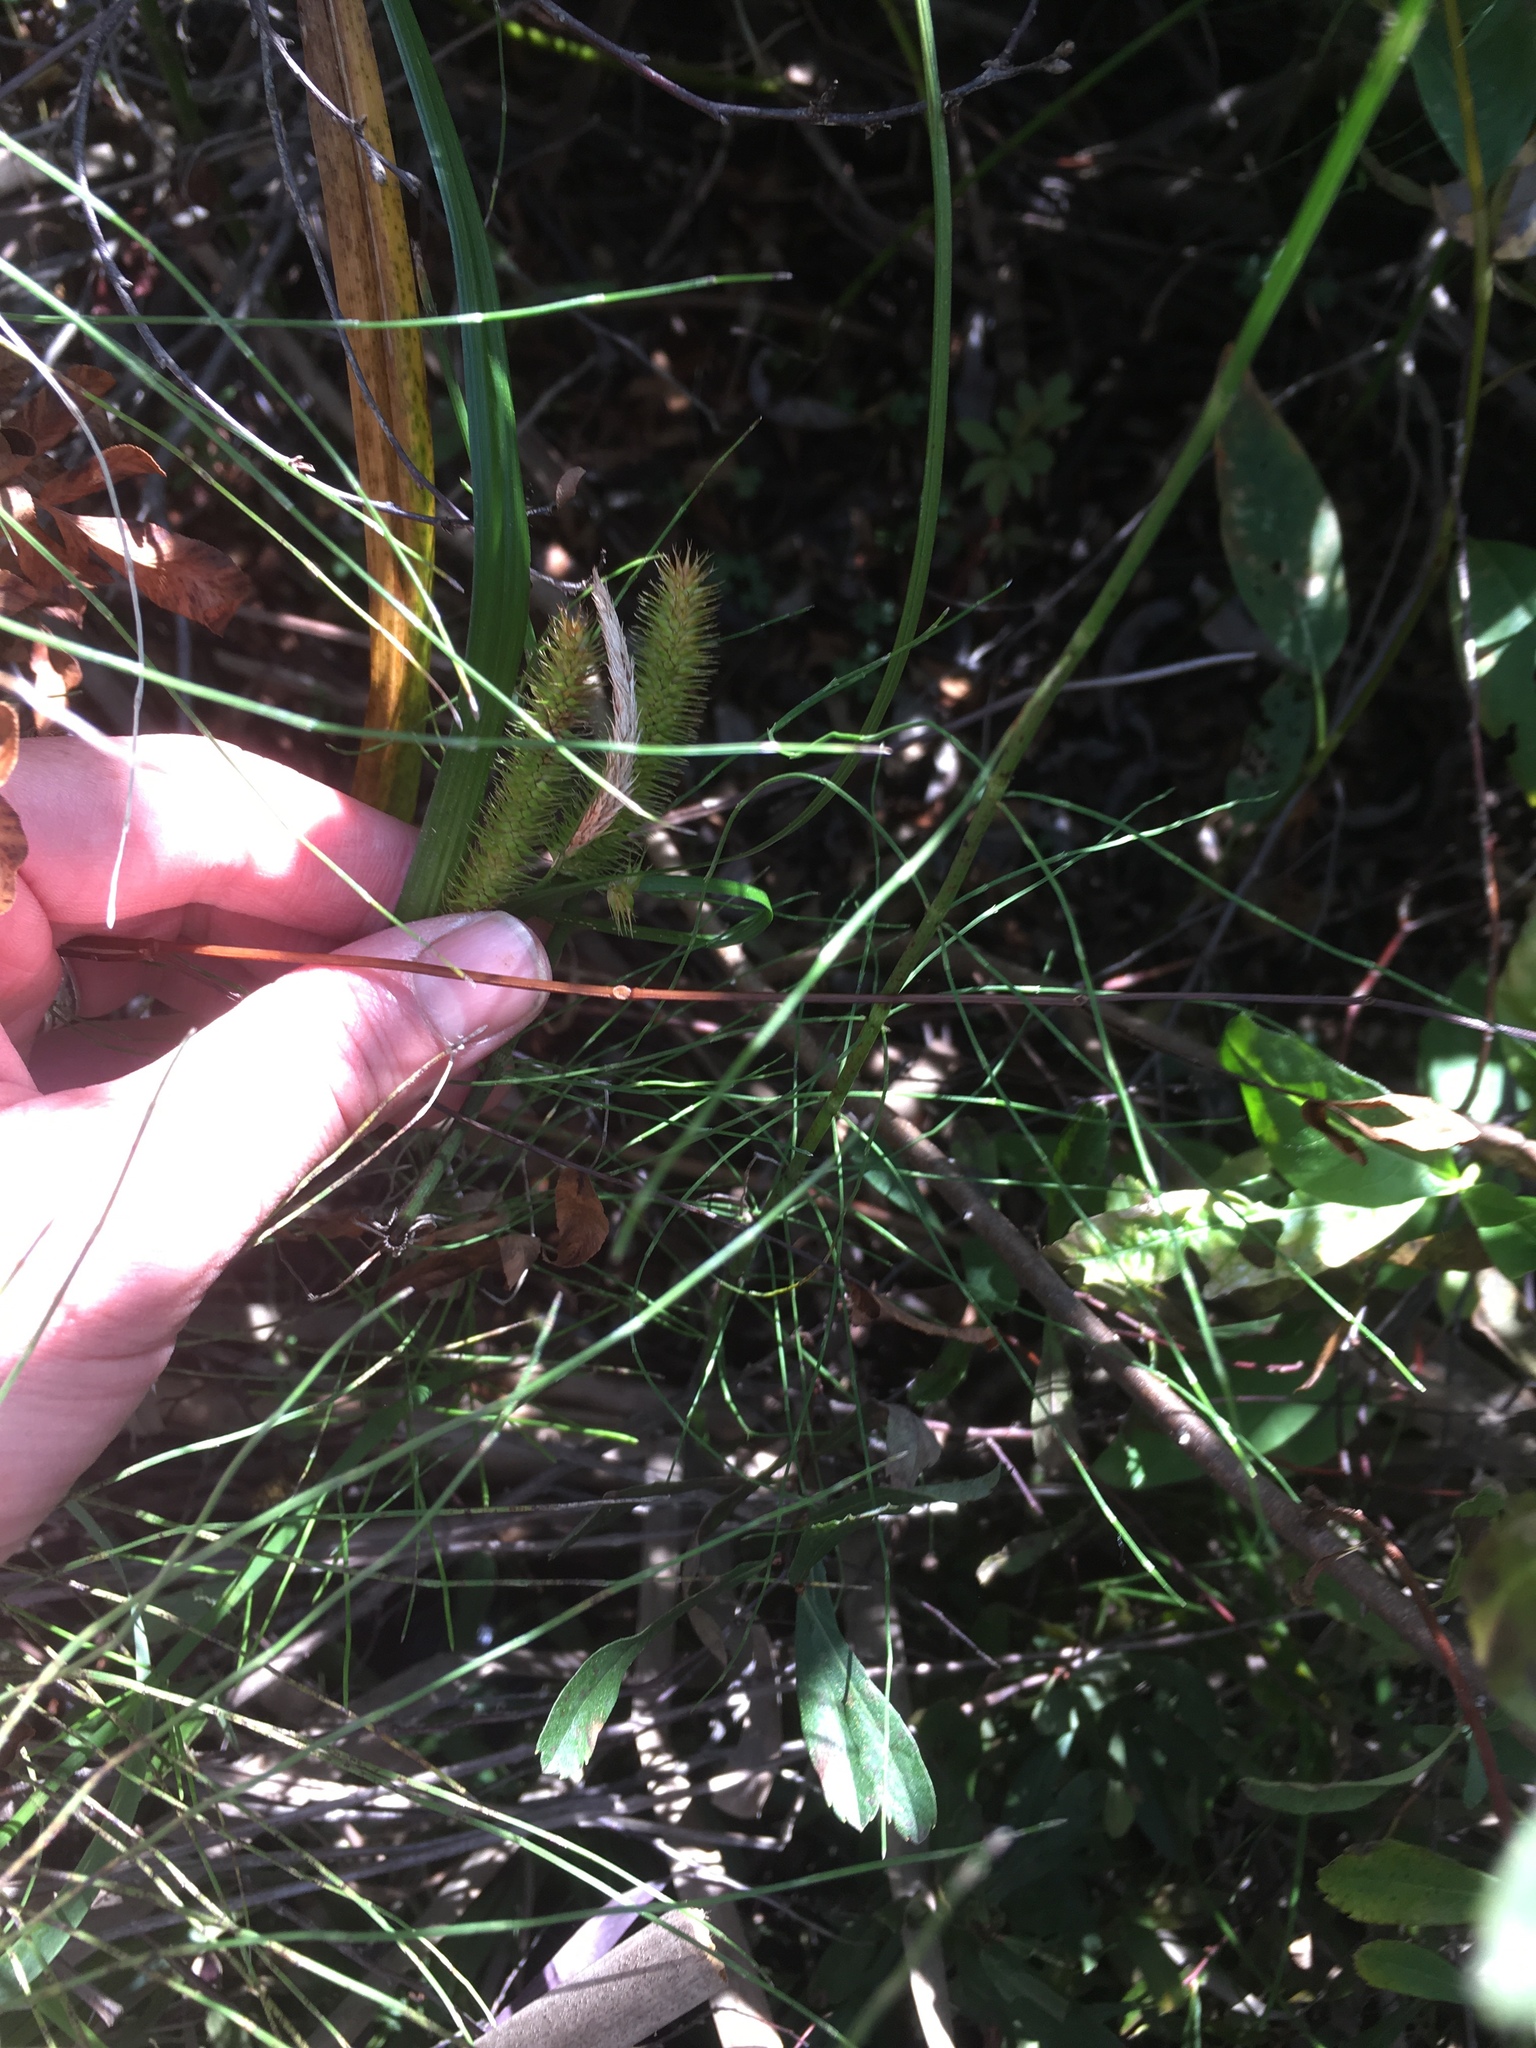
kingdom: Plantae
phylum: Tracheophyta
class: Liliopsida
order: Poales
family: Cyperaceae
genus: Carex
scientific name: Carex comosa
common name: Bristly sedge
